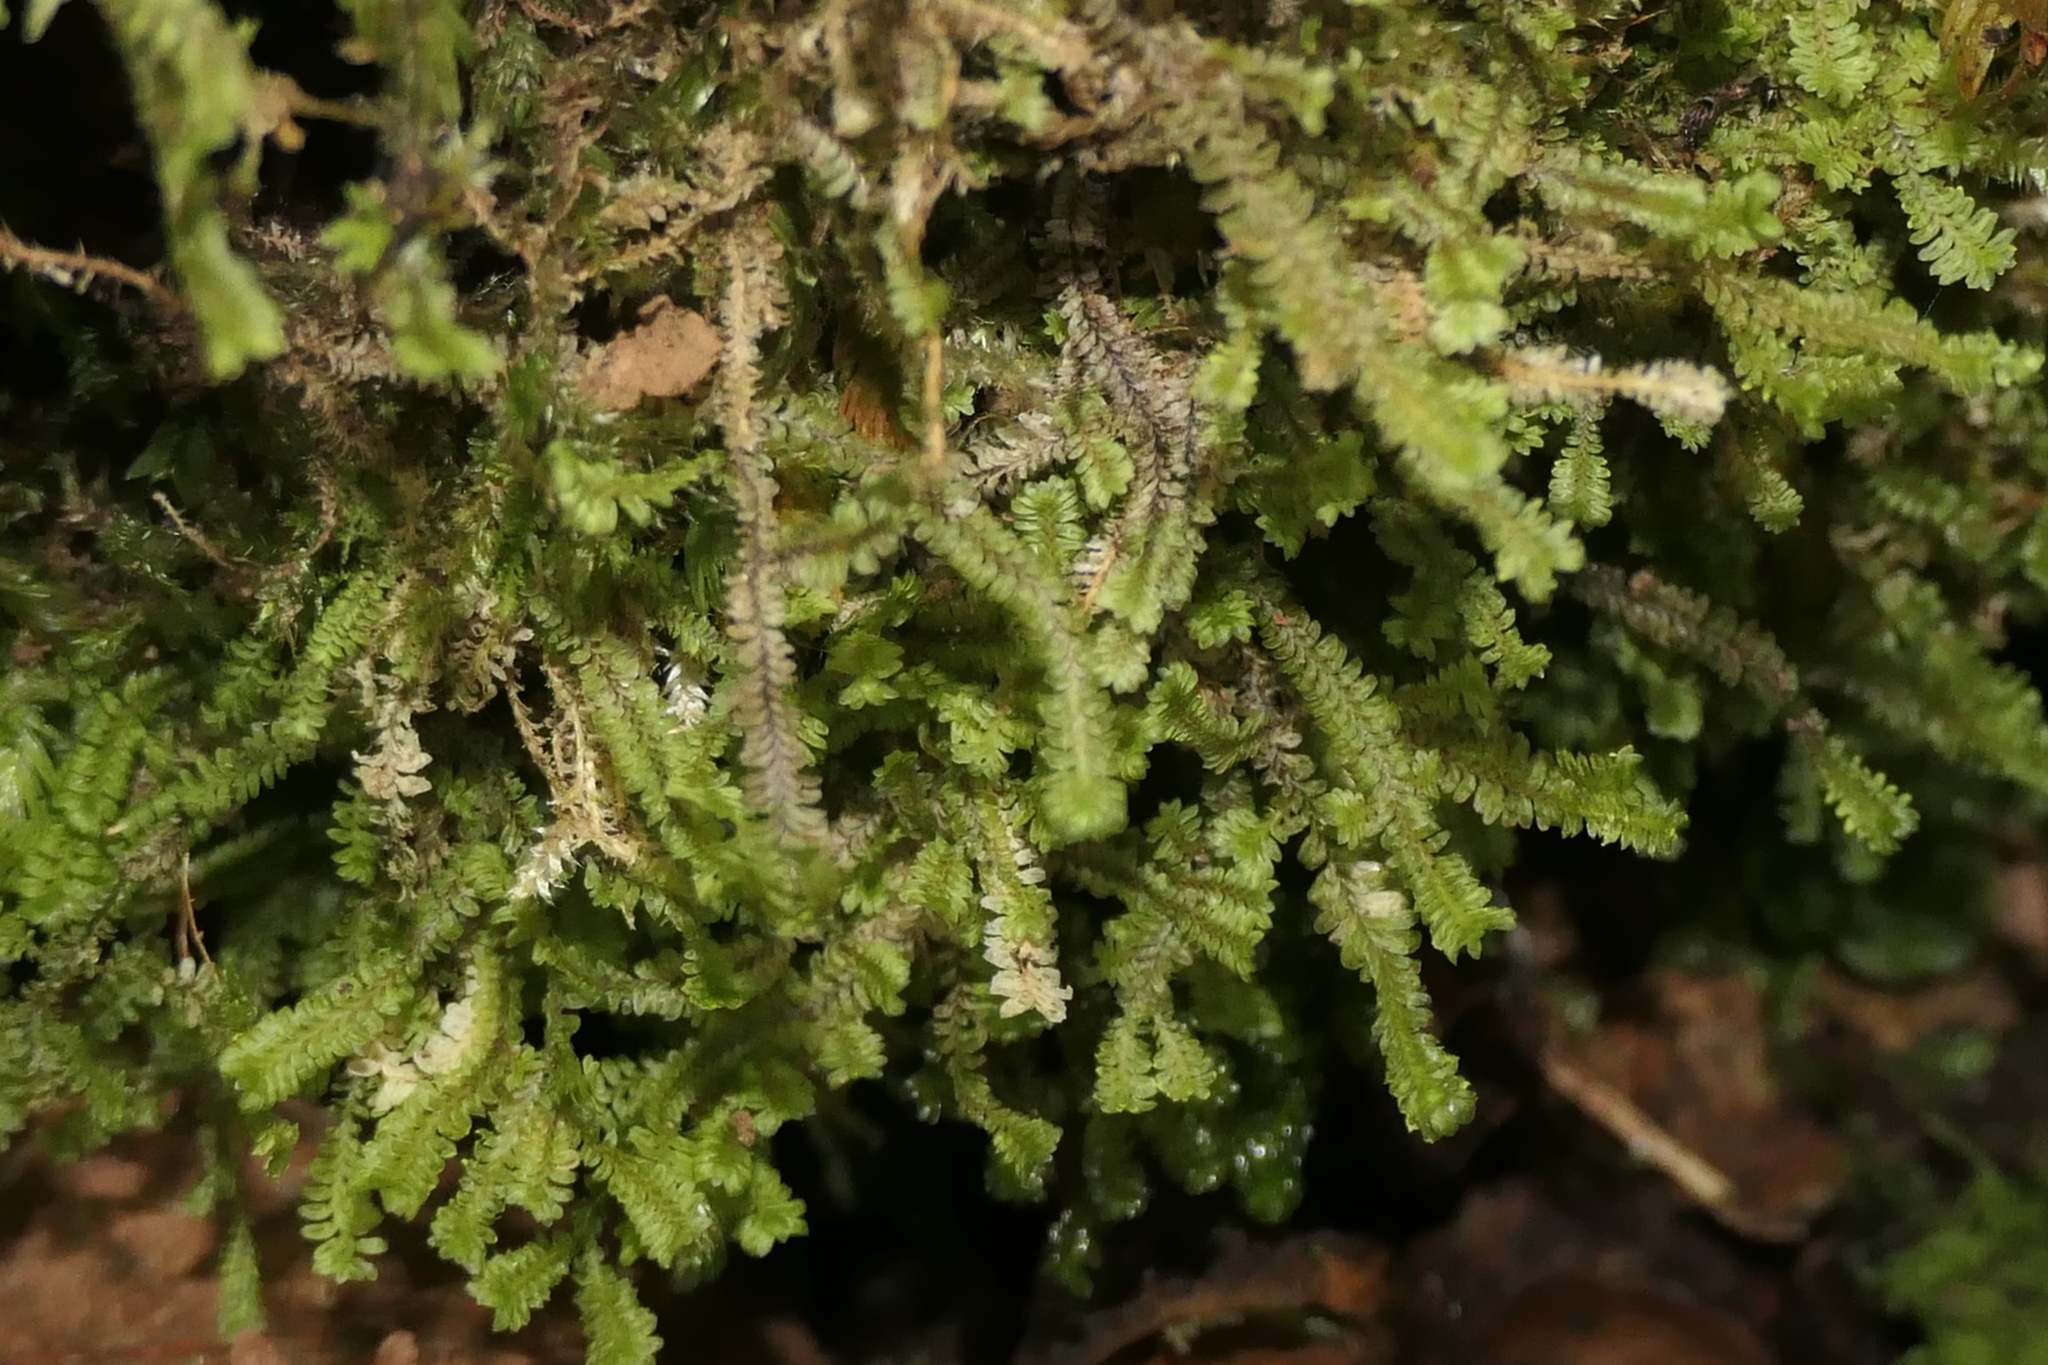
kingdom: Plantae
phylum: Marchantiophyta
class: Jungermanniopsida
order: Jungermanniales
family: Scapaniaceae
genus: Diplophyllum
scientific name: Diplophyllum albicans
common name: White earwort
